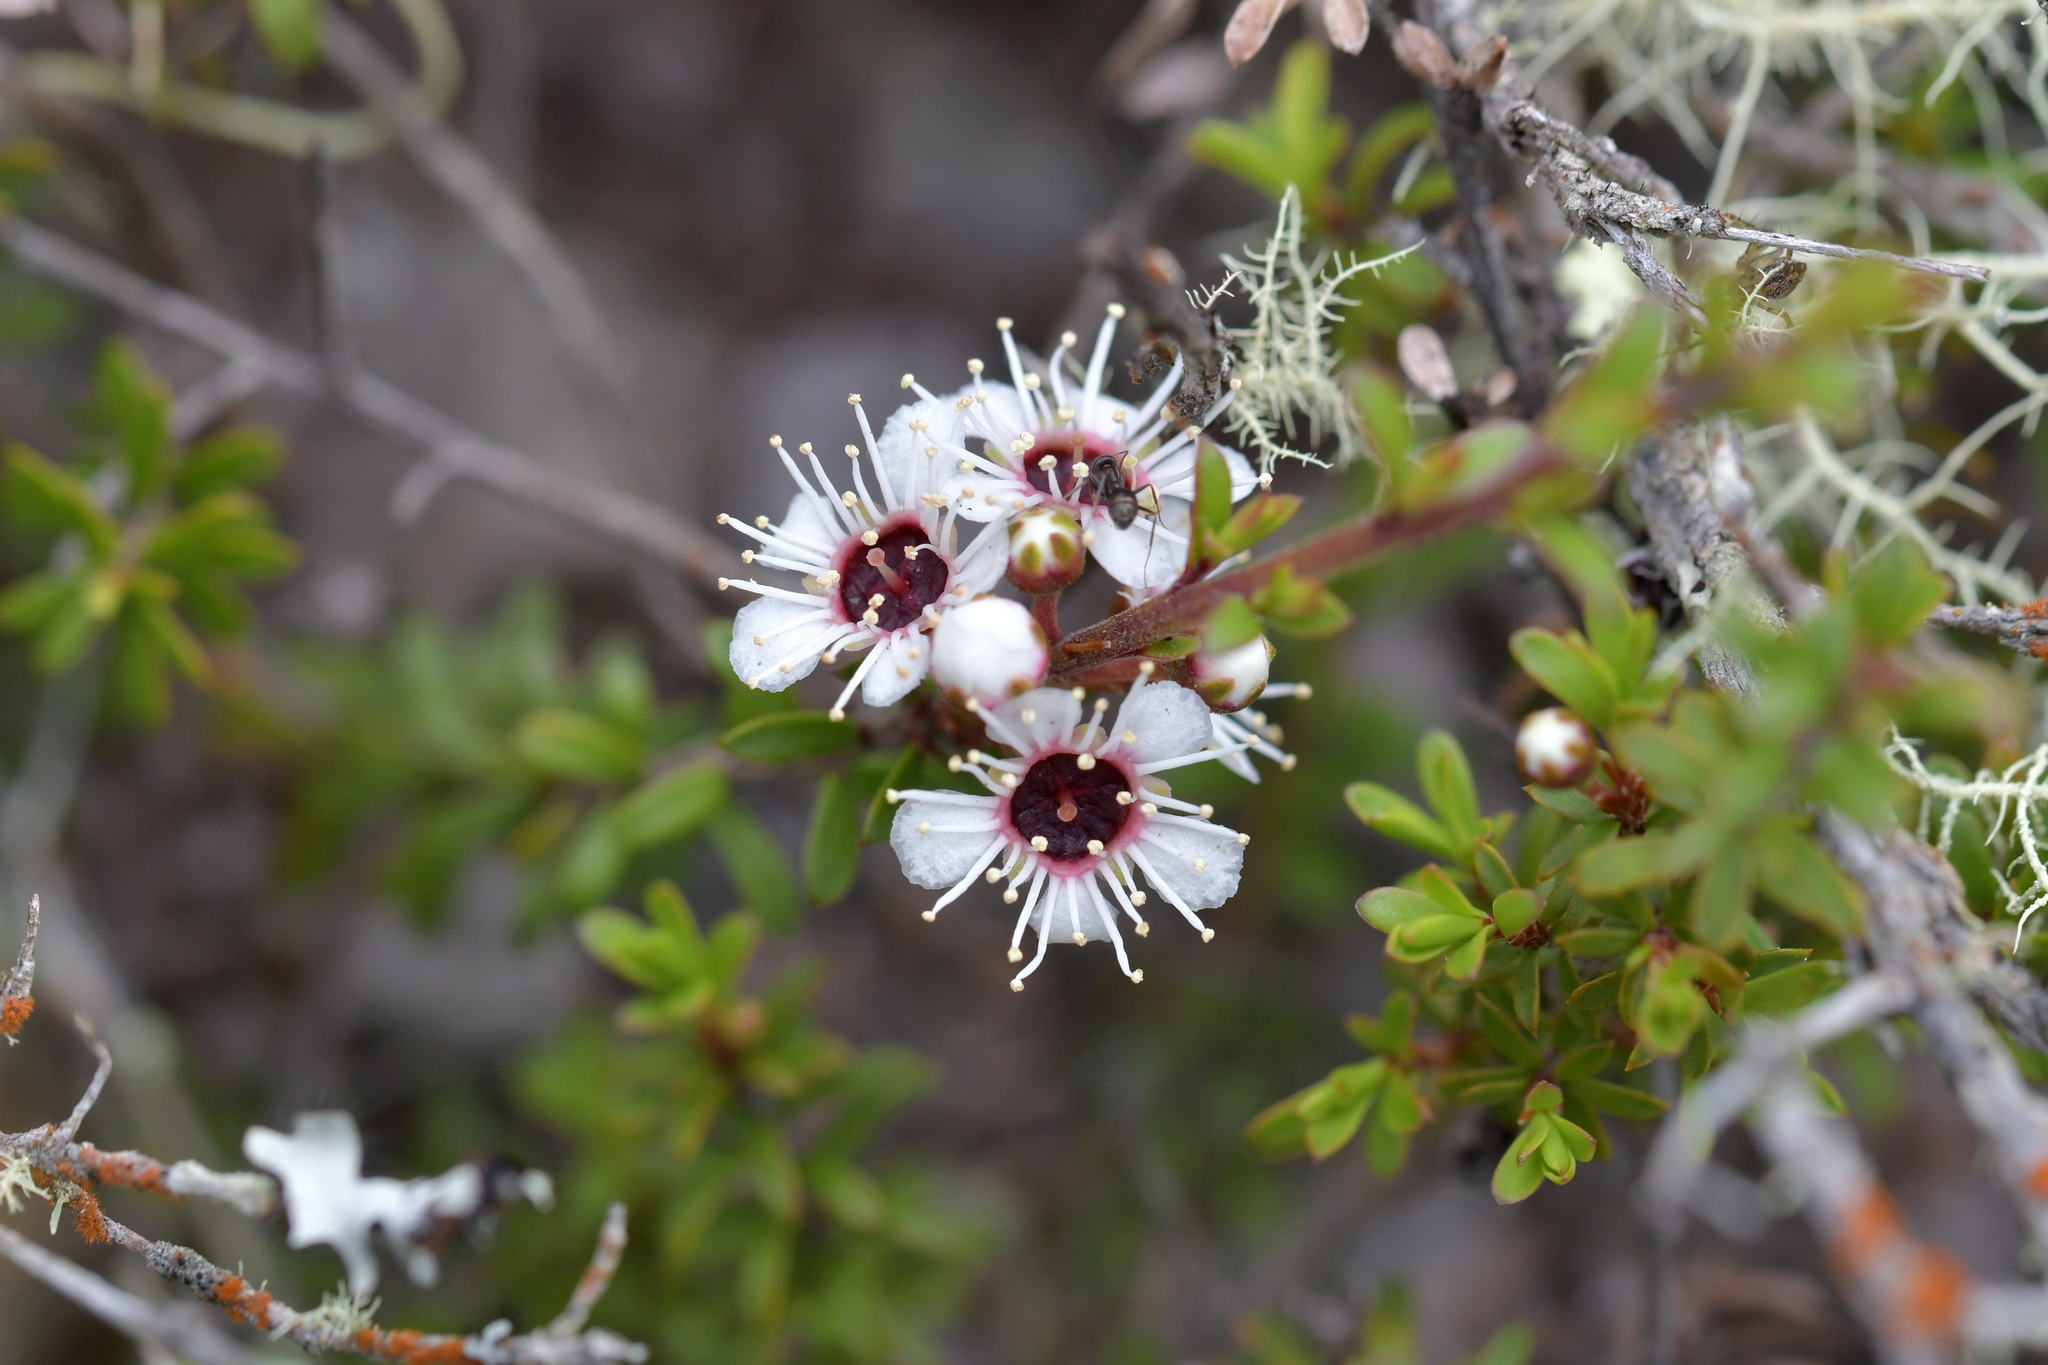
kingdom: Plantae
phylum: Tracheophyta
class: Magnoliopsida
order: Myrtales
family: Myrtaceae
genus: Kunzea
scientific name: Kunzea tenuicaulis
